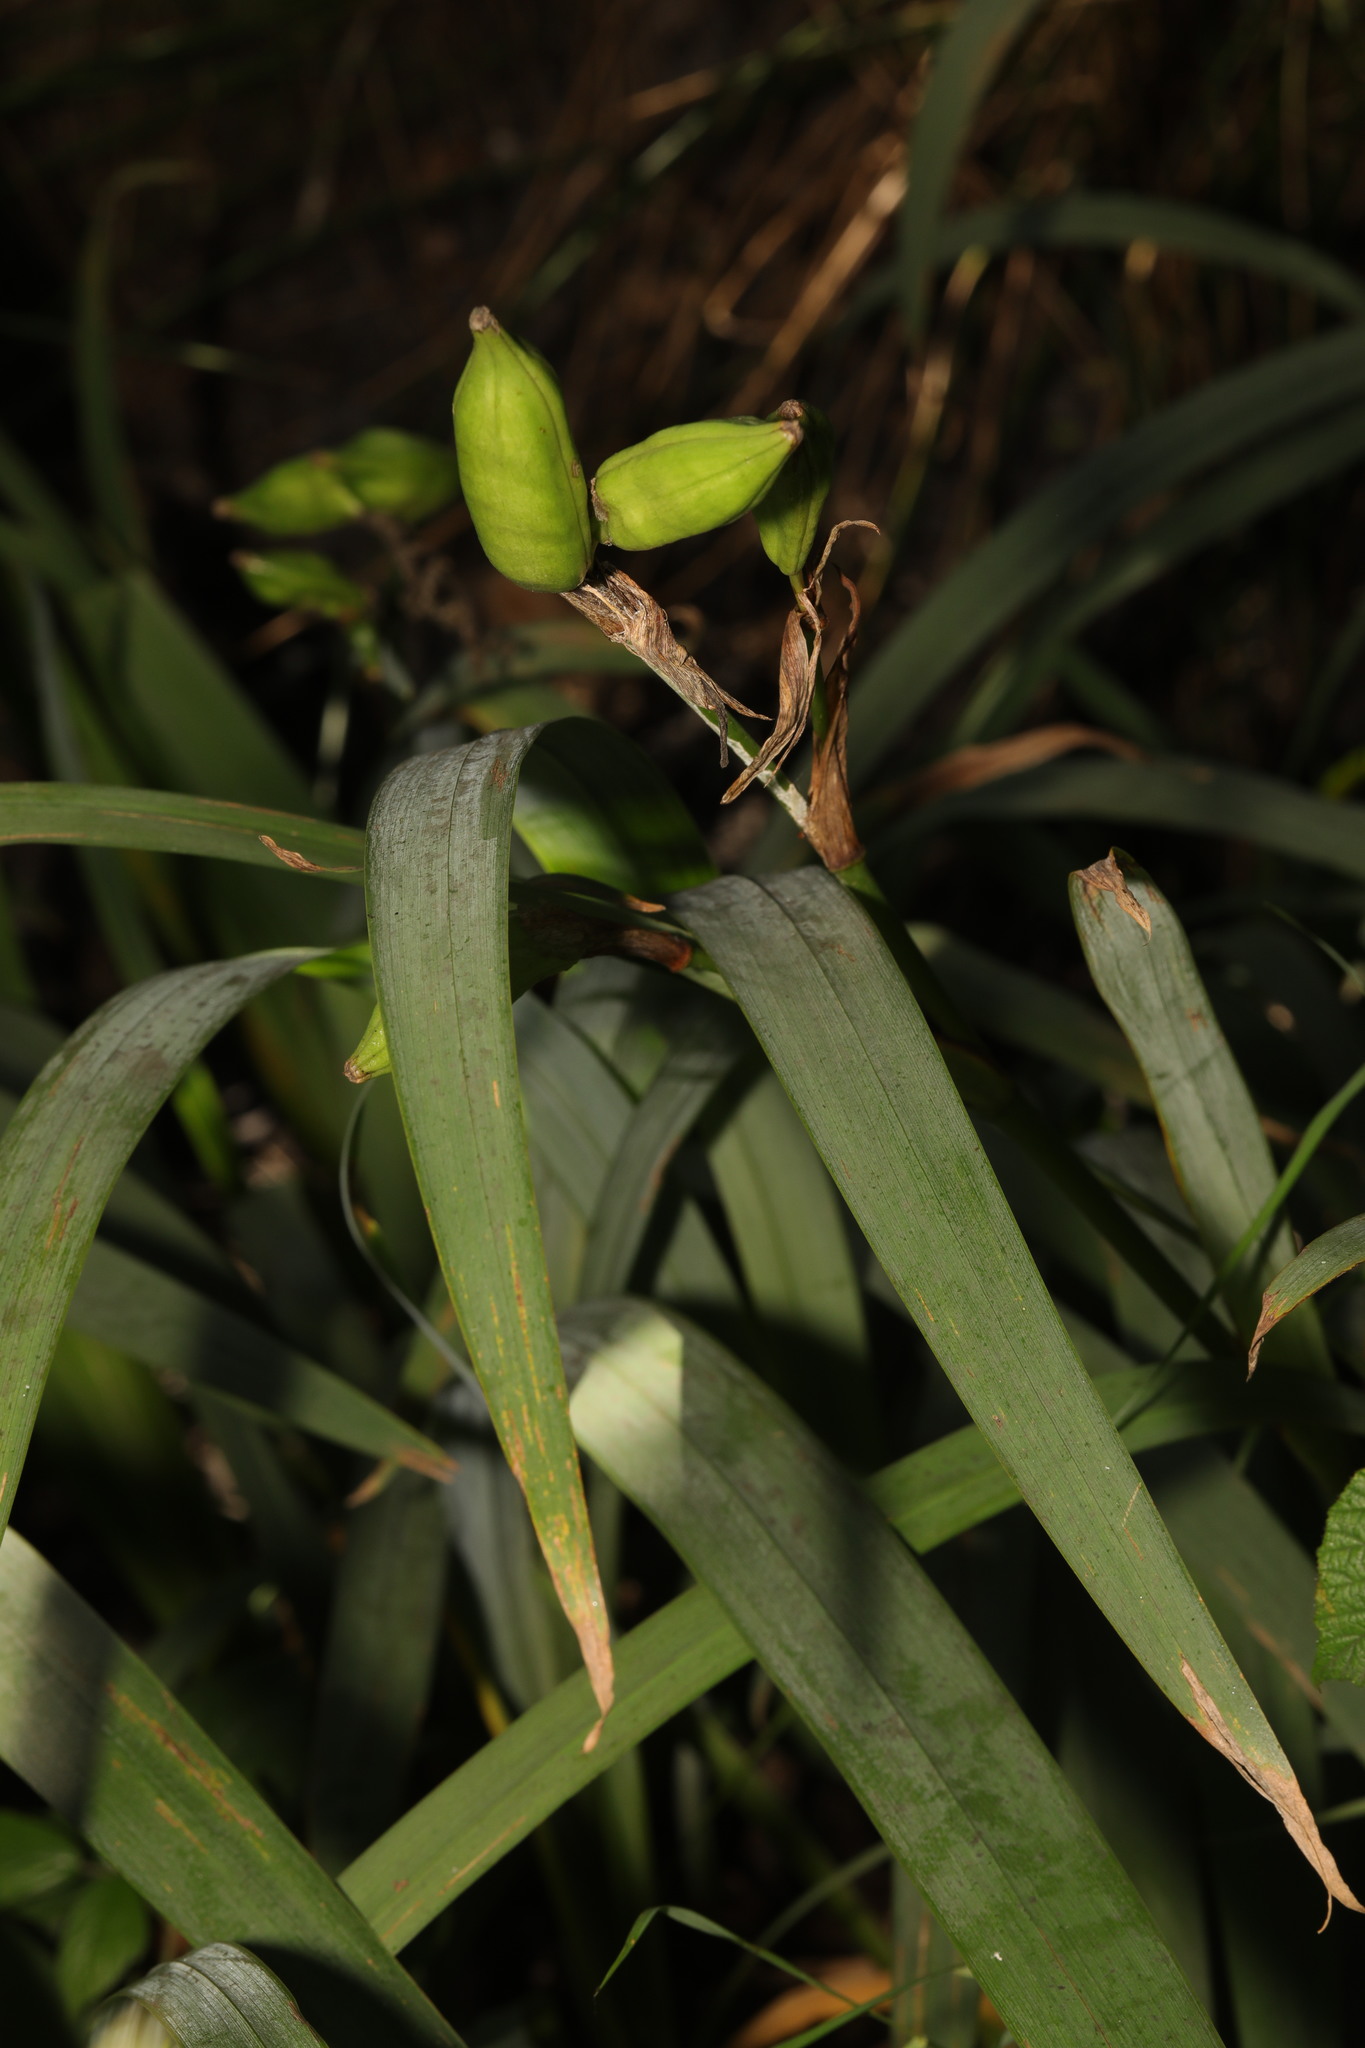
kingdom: Plantae
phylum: Tracheophyta
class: Liliopsida
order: Asparagales
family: Iridaceae
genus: Iris
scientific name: Iris pseudacorus
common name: Yellow flag
